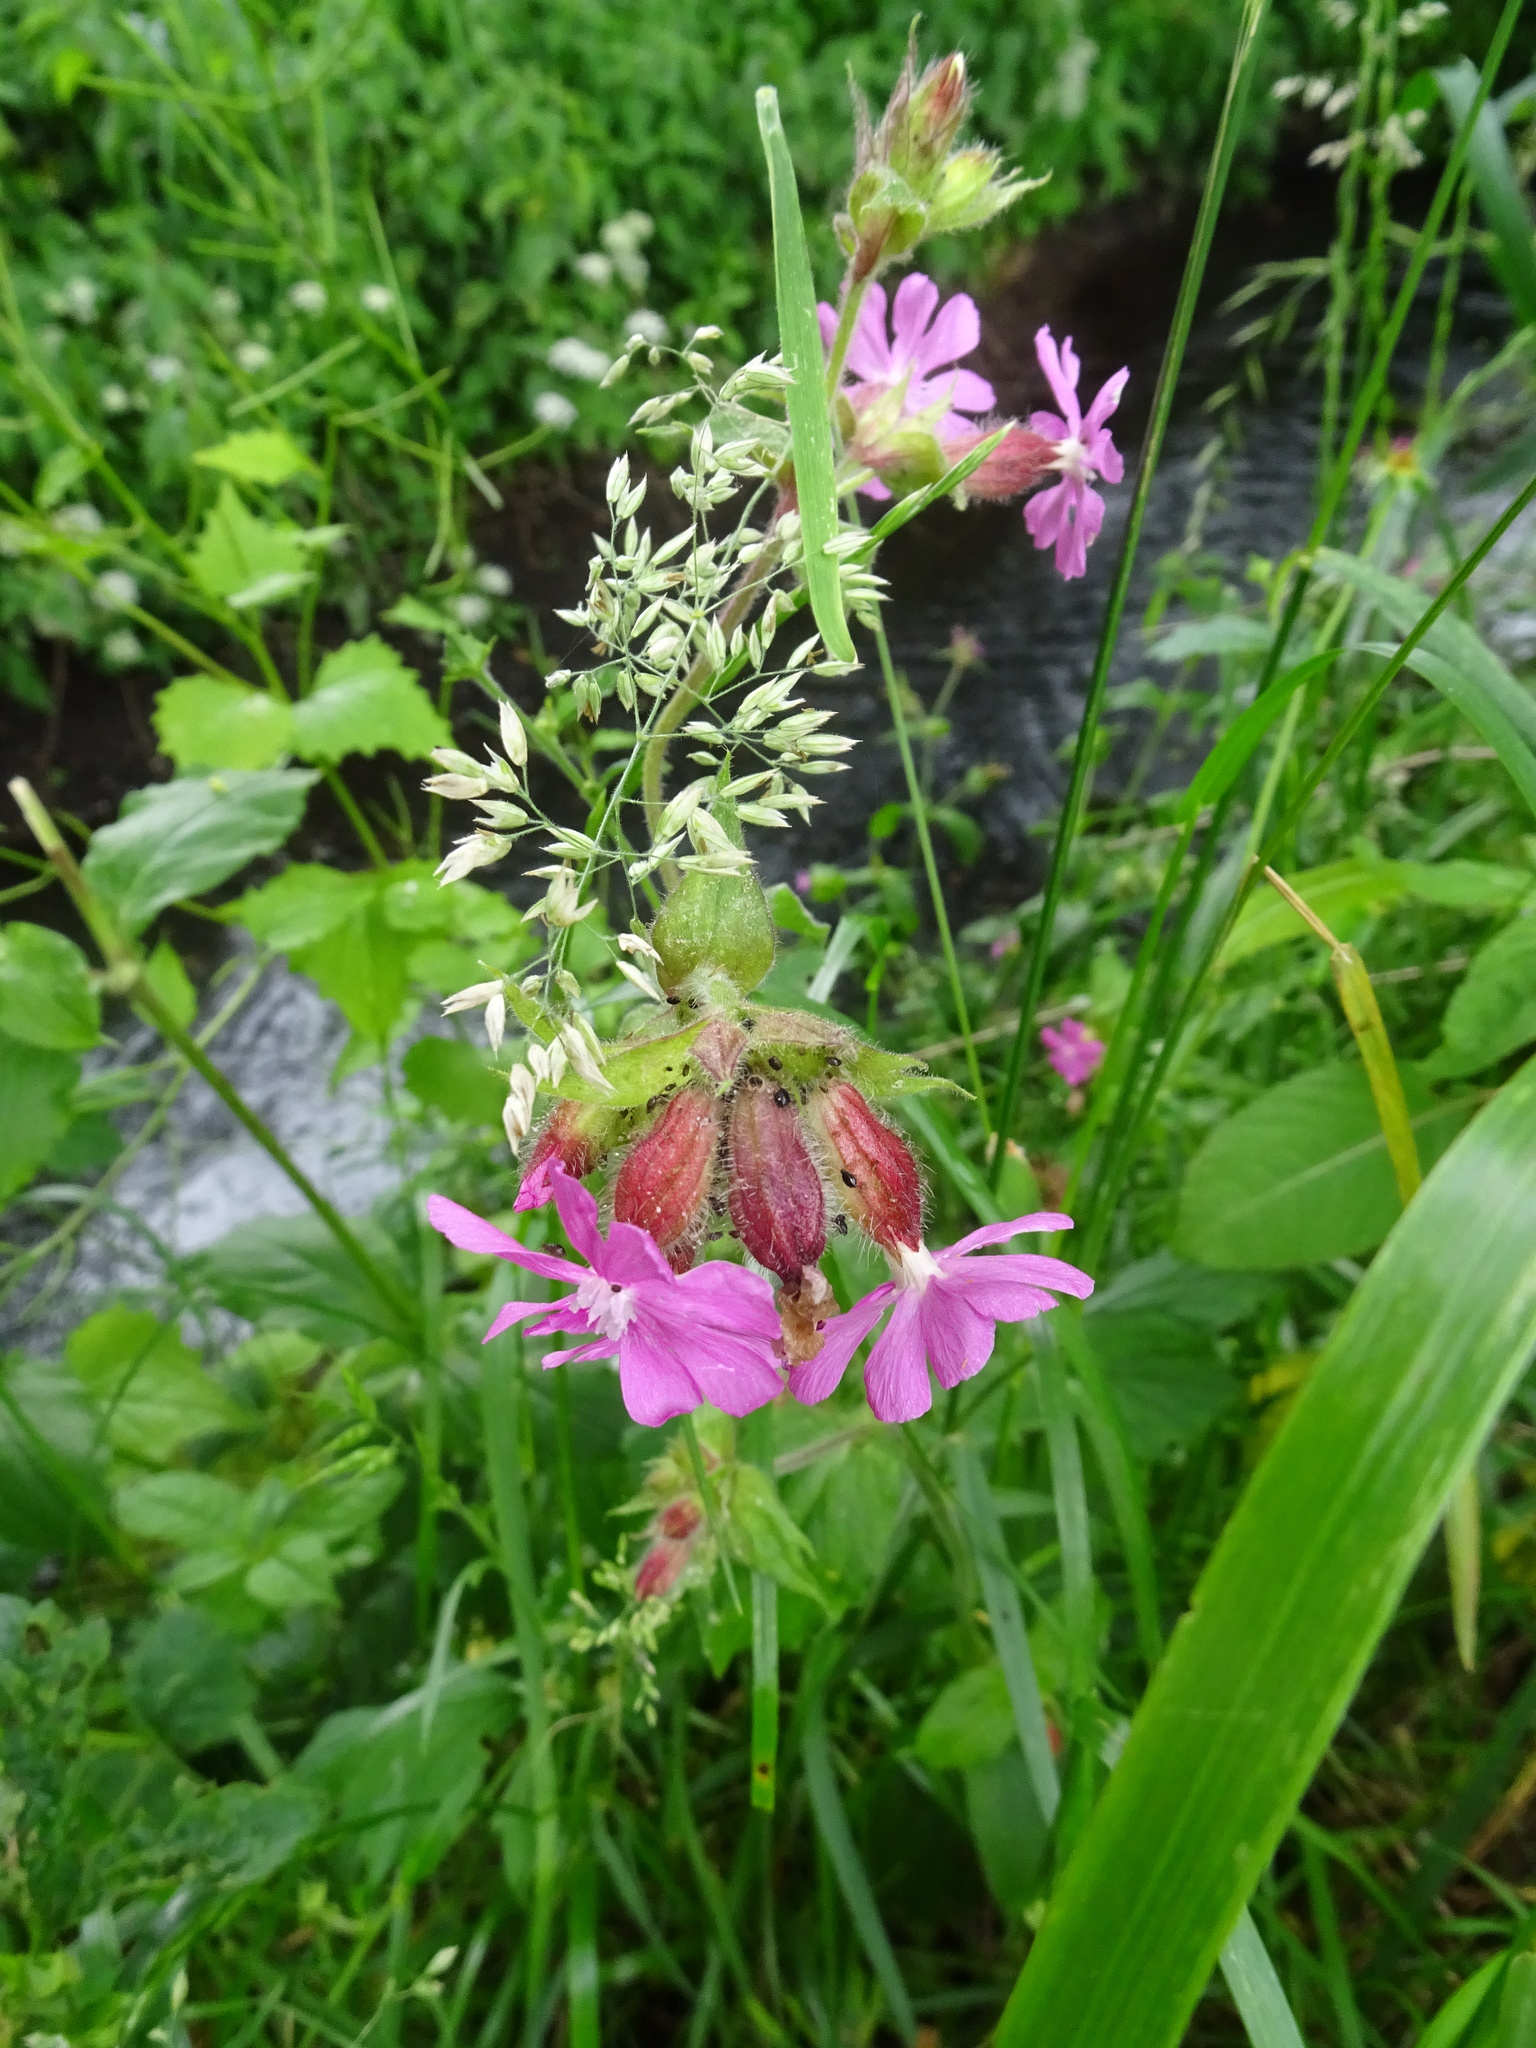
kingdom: Plantae
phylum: Tracheophyta
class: Magnoliopsida
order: Caryophyllales
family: Caryophyllaceae
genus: Silene
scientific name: Silene dioica
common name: Red campion
